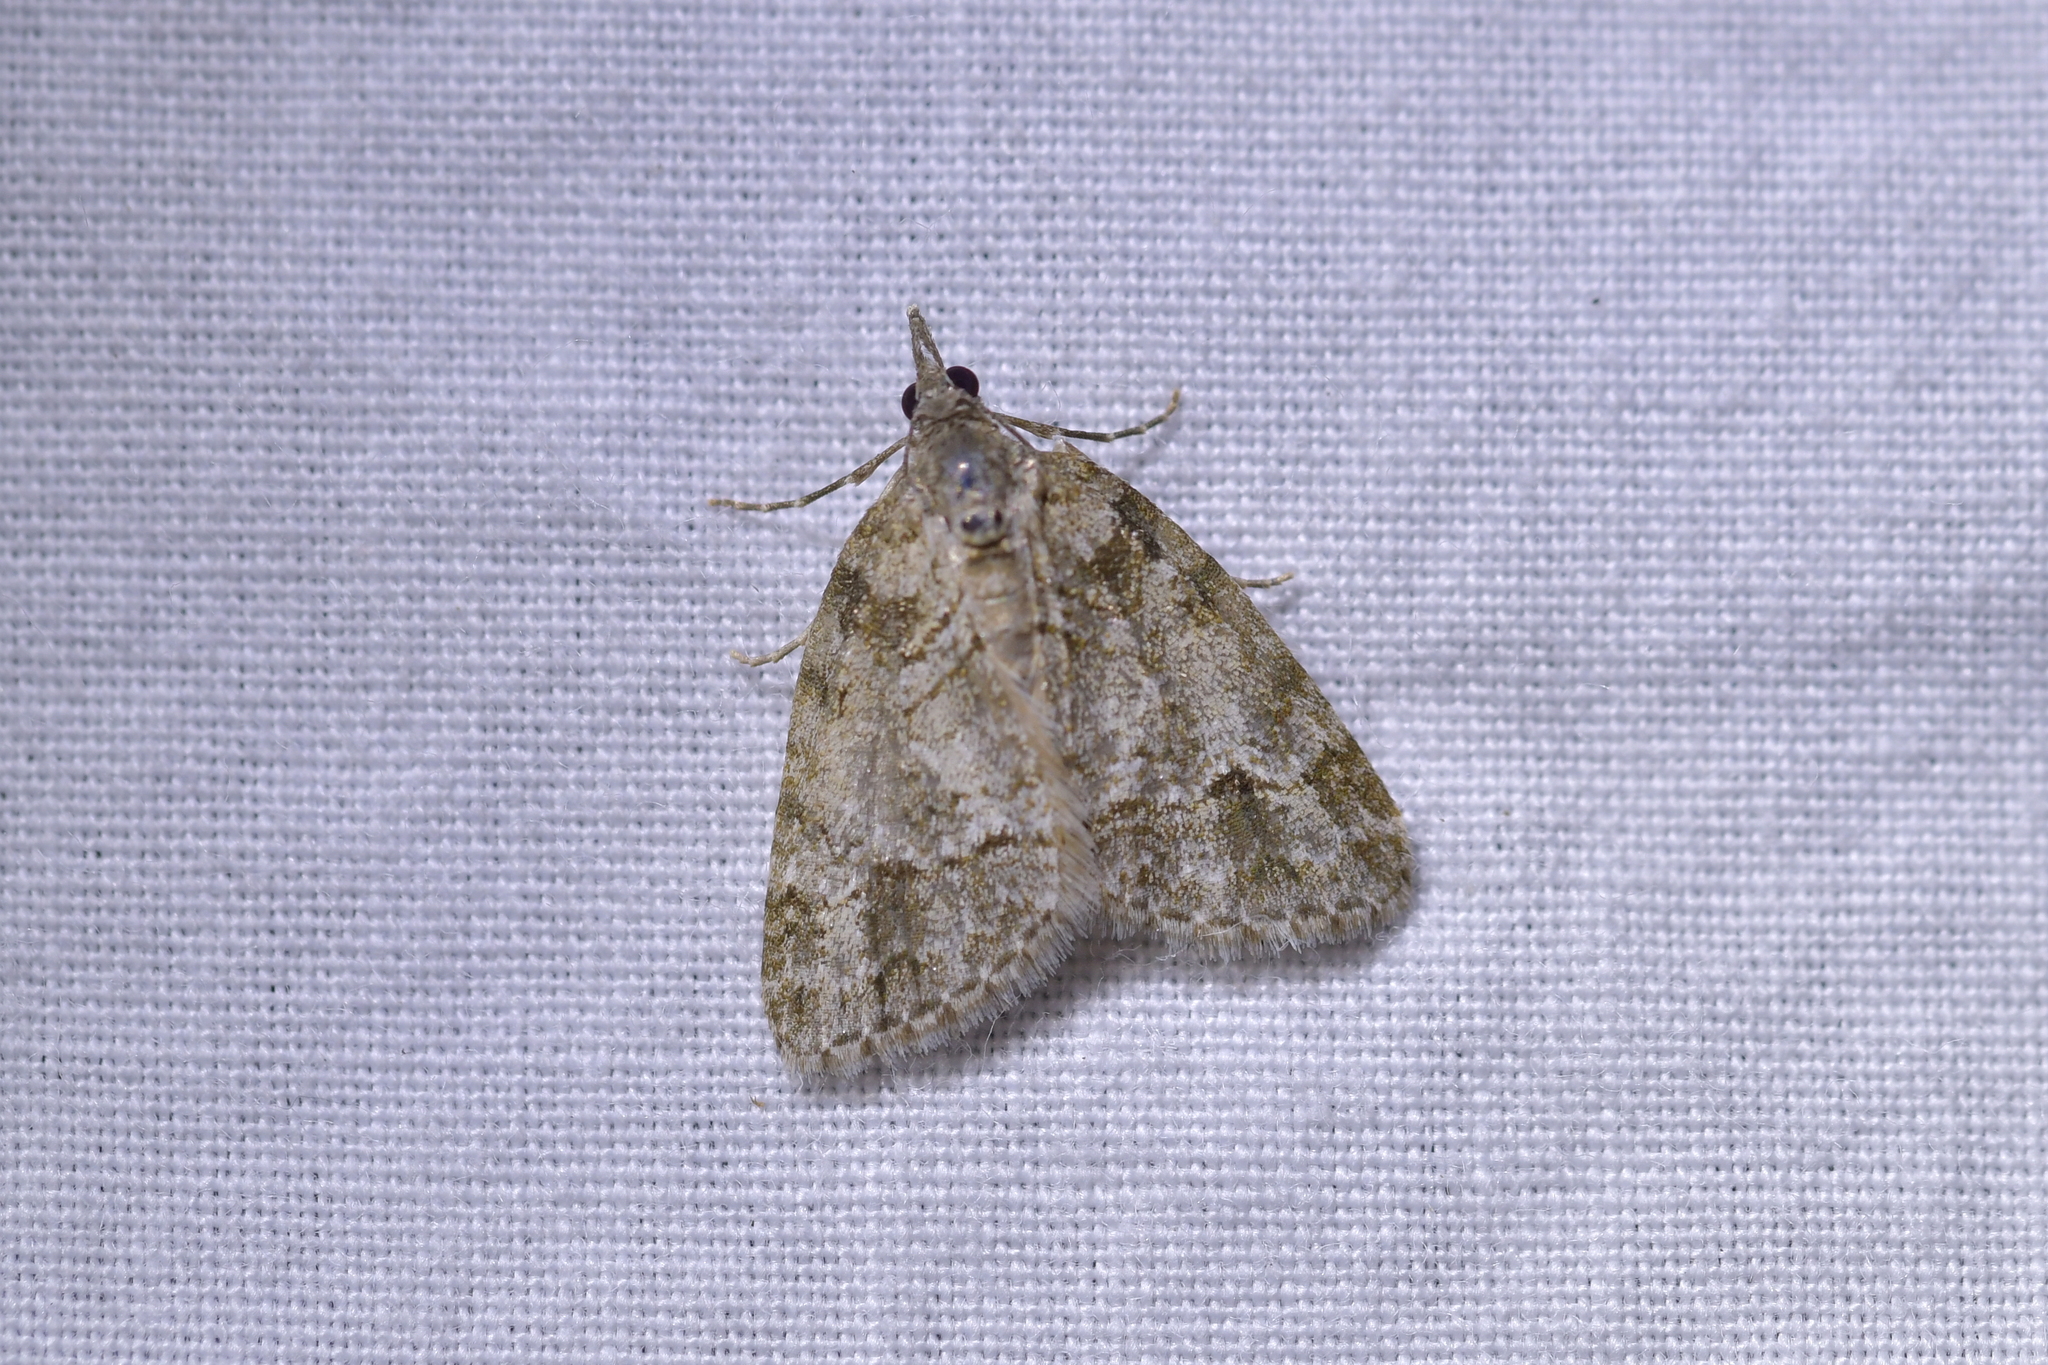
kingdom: Animalia
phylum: Arthropoda
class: Insecta
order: Lepidoptera
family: Geometridae
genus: Microdes
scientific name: Microdes quadristrigata
